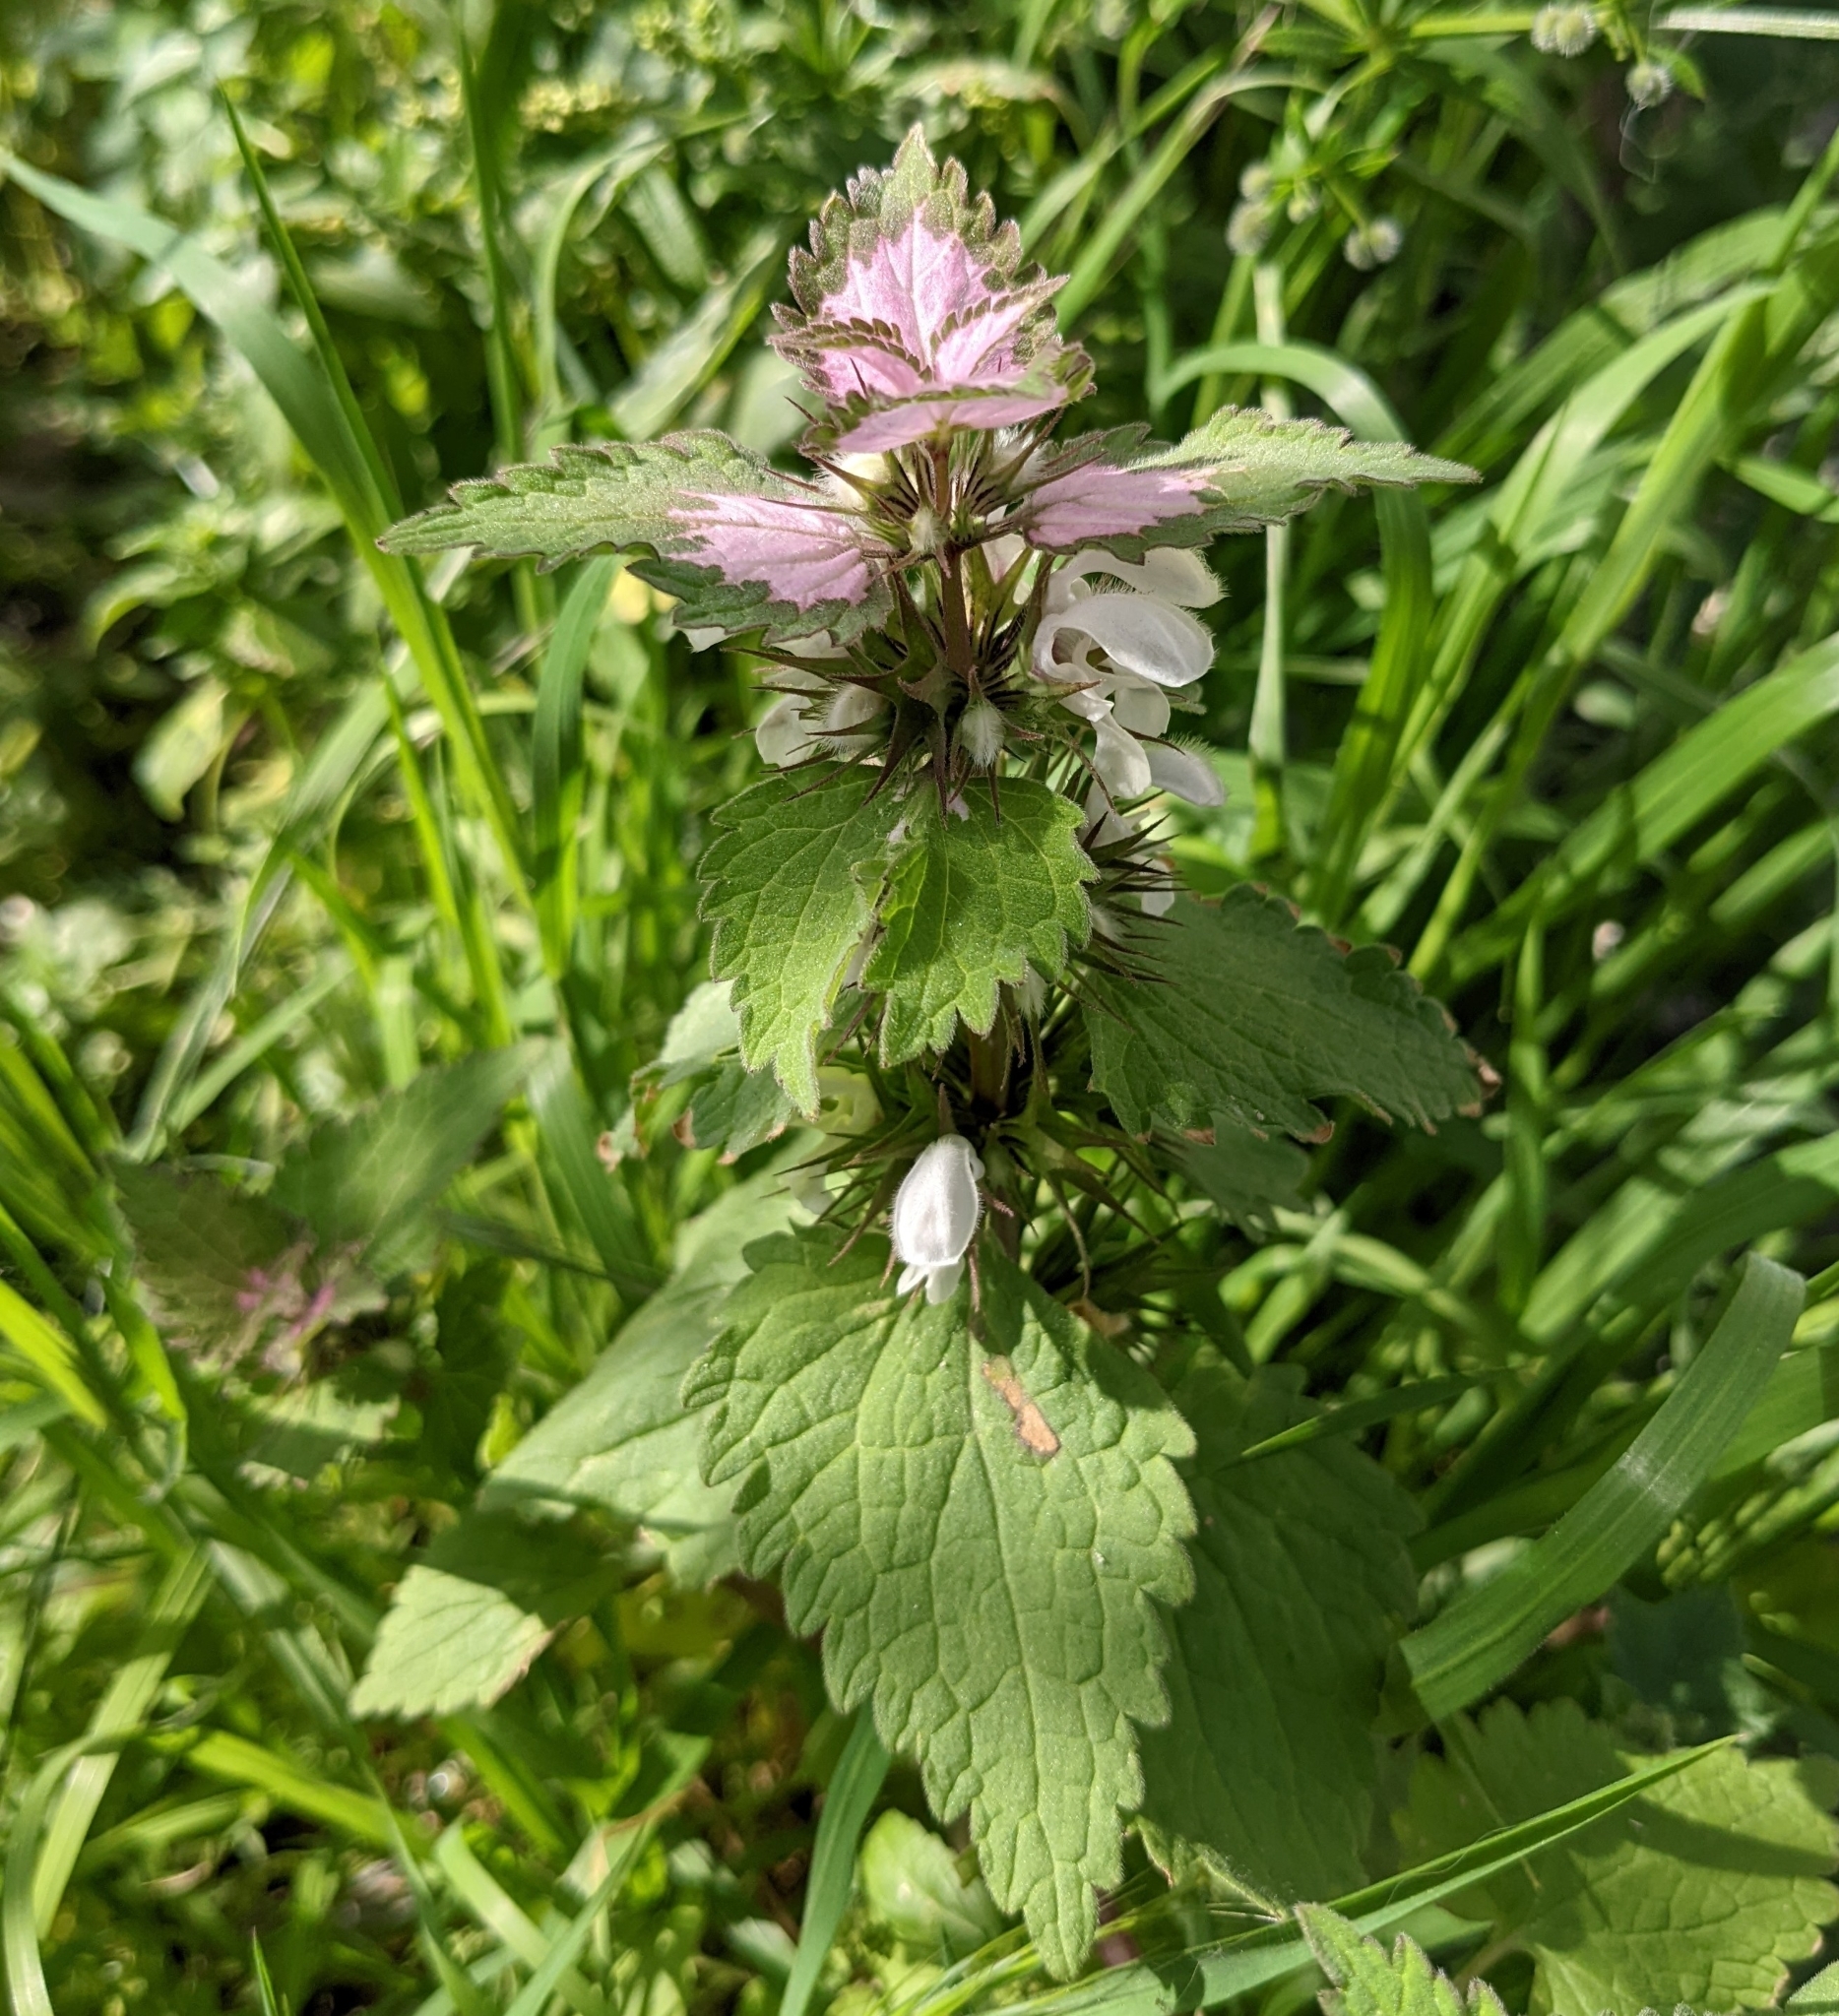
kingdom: Plantae
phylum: Tracheophyta
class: Magnoliopsida
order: Lamiales
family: Lamiaceae
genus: Lamium
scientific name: Lamium moschatum
